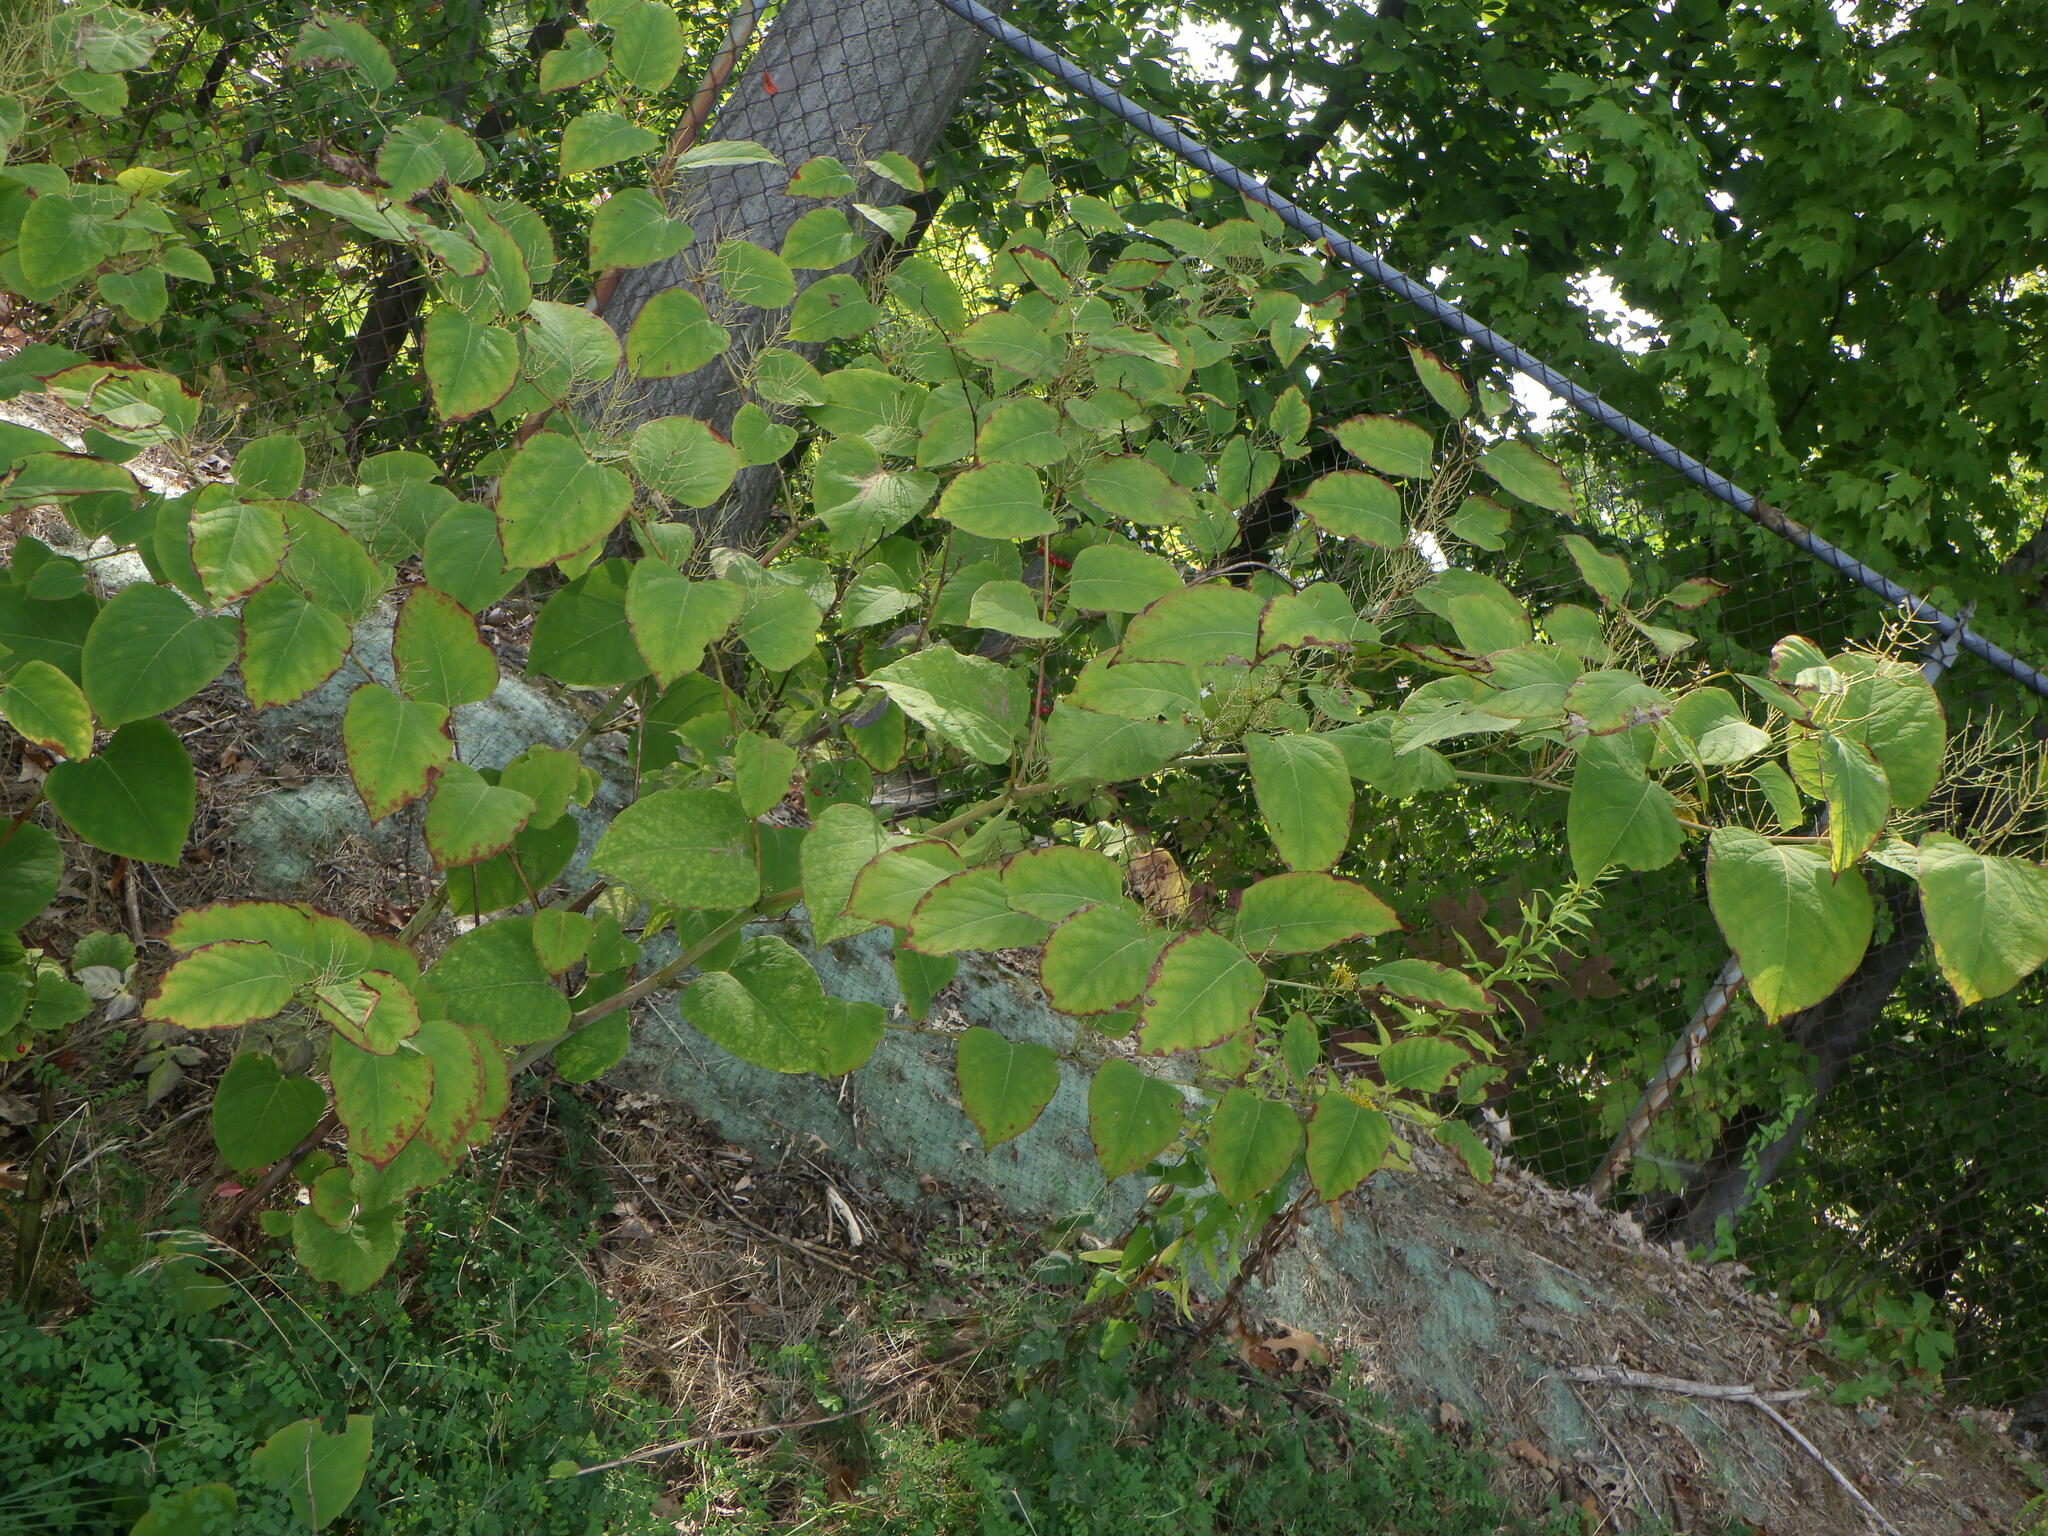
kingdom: Plantae
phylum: Tracheophyta
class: Magnoliopsida
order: Caryophyllales
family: Polygonaceae
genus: Reynoutria
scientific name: Reynoutria japonica
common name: Japanese knotweed
